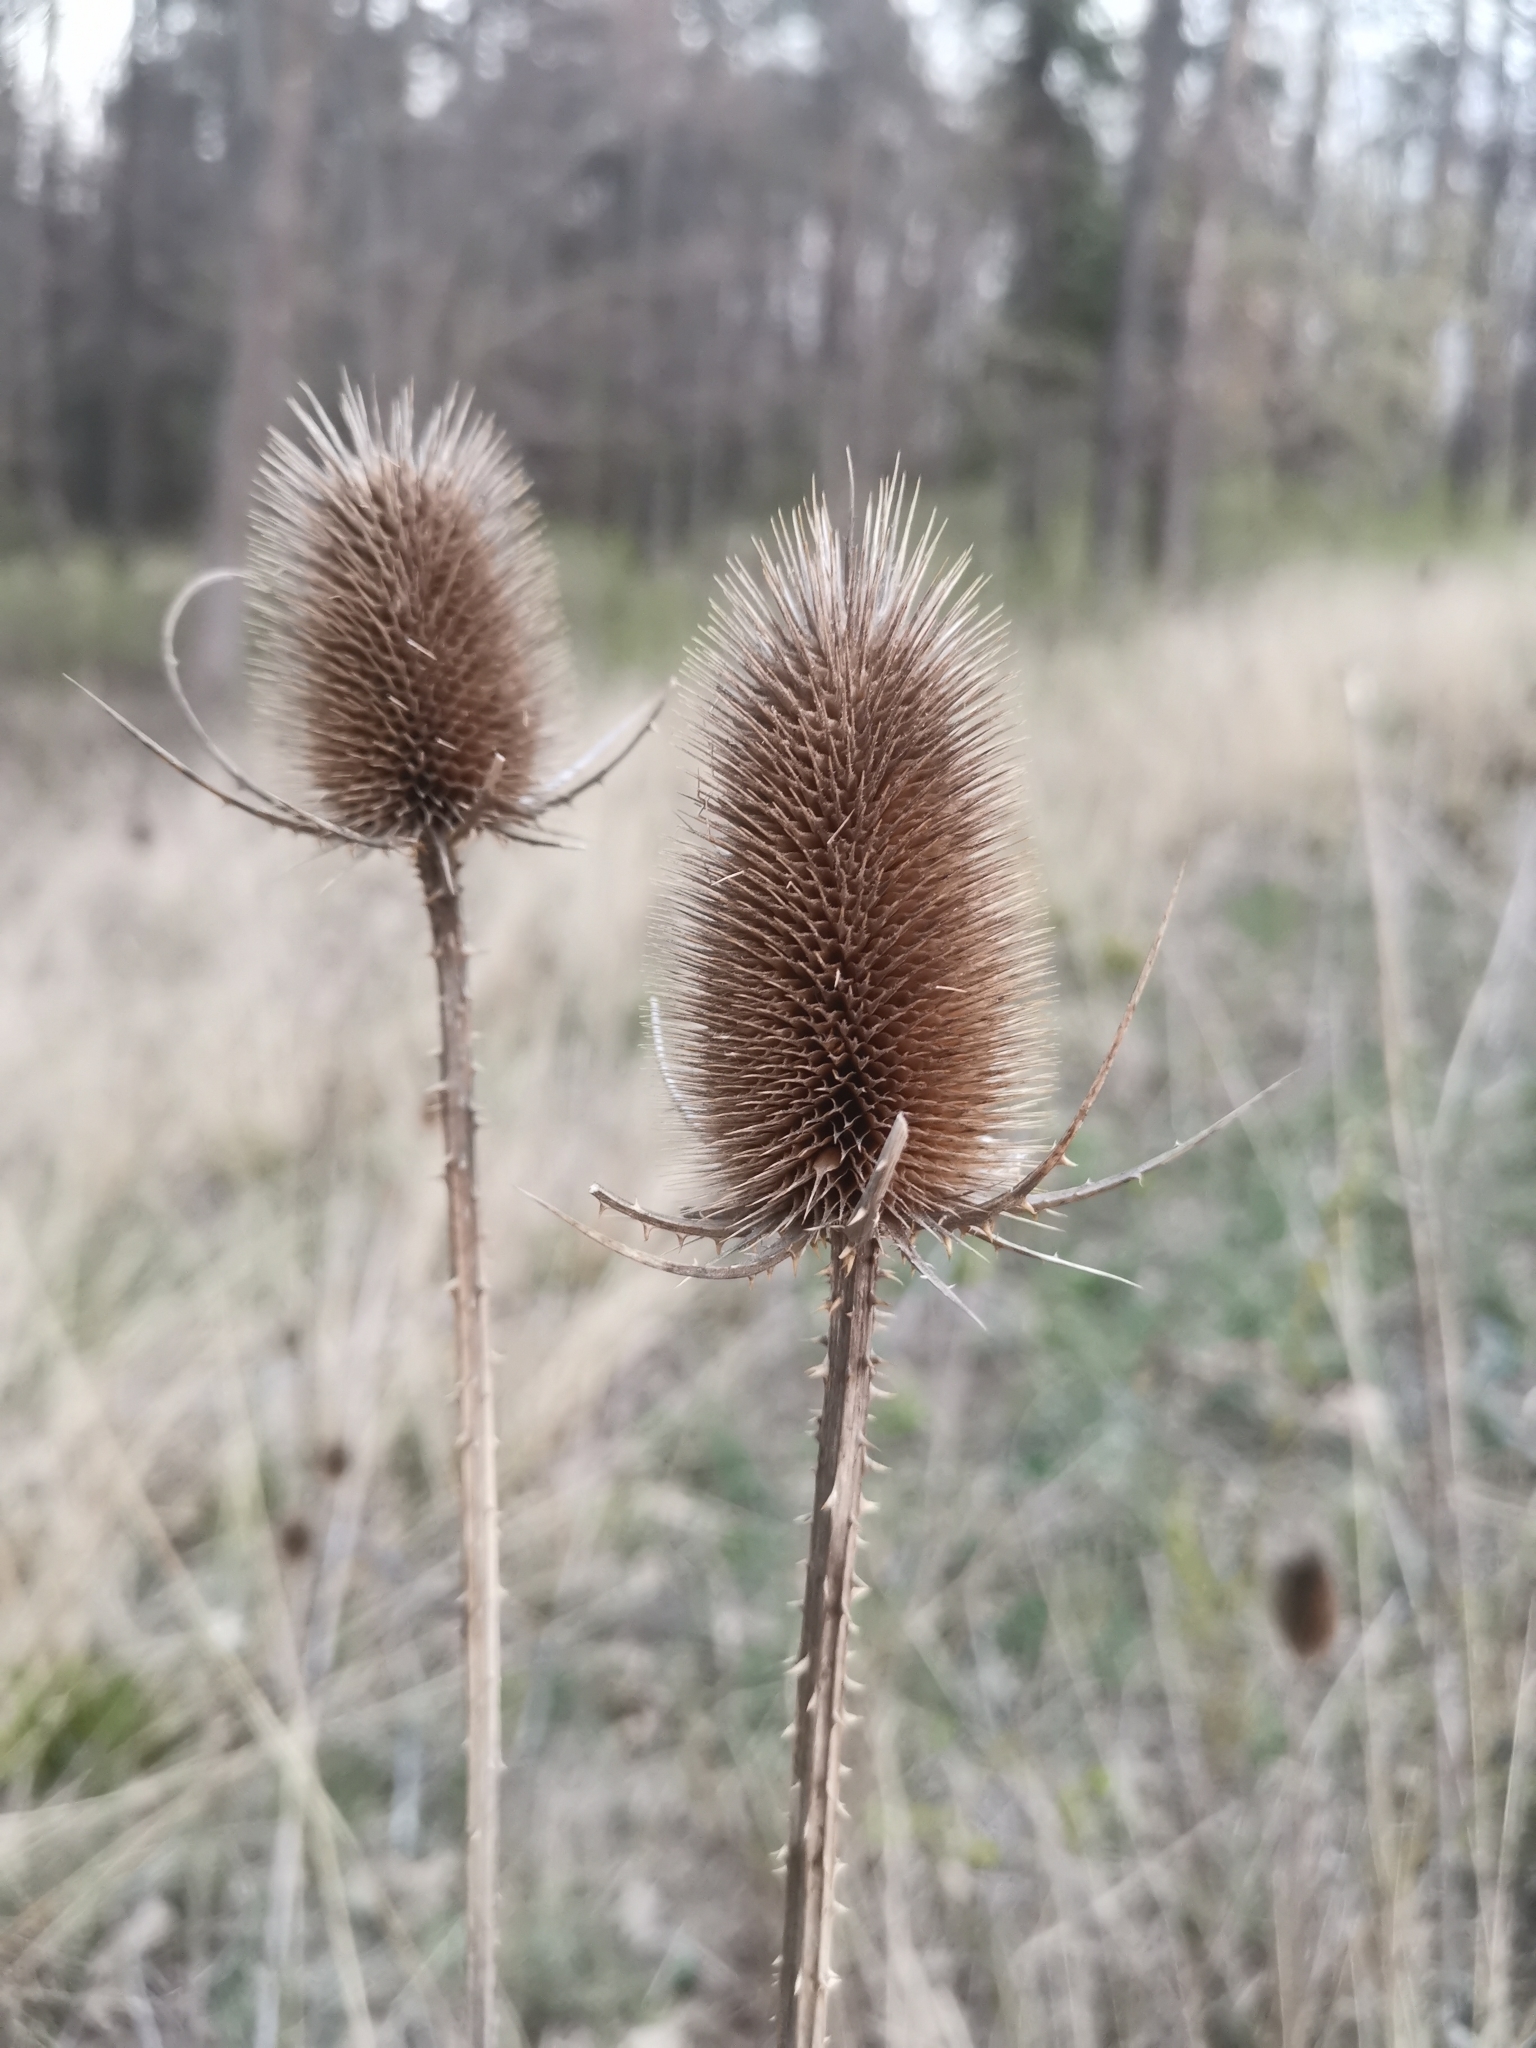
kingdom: Plantae
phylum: Tracheophyta
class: Magnoliopsida
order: Dipsacales
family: Caprifoliaceae
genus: Dipsacus
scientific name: Dipsacus fullonum
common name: Teasel
